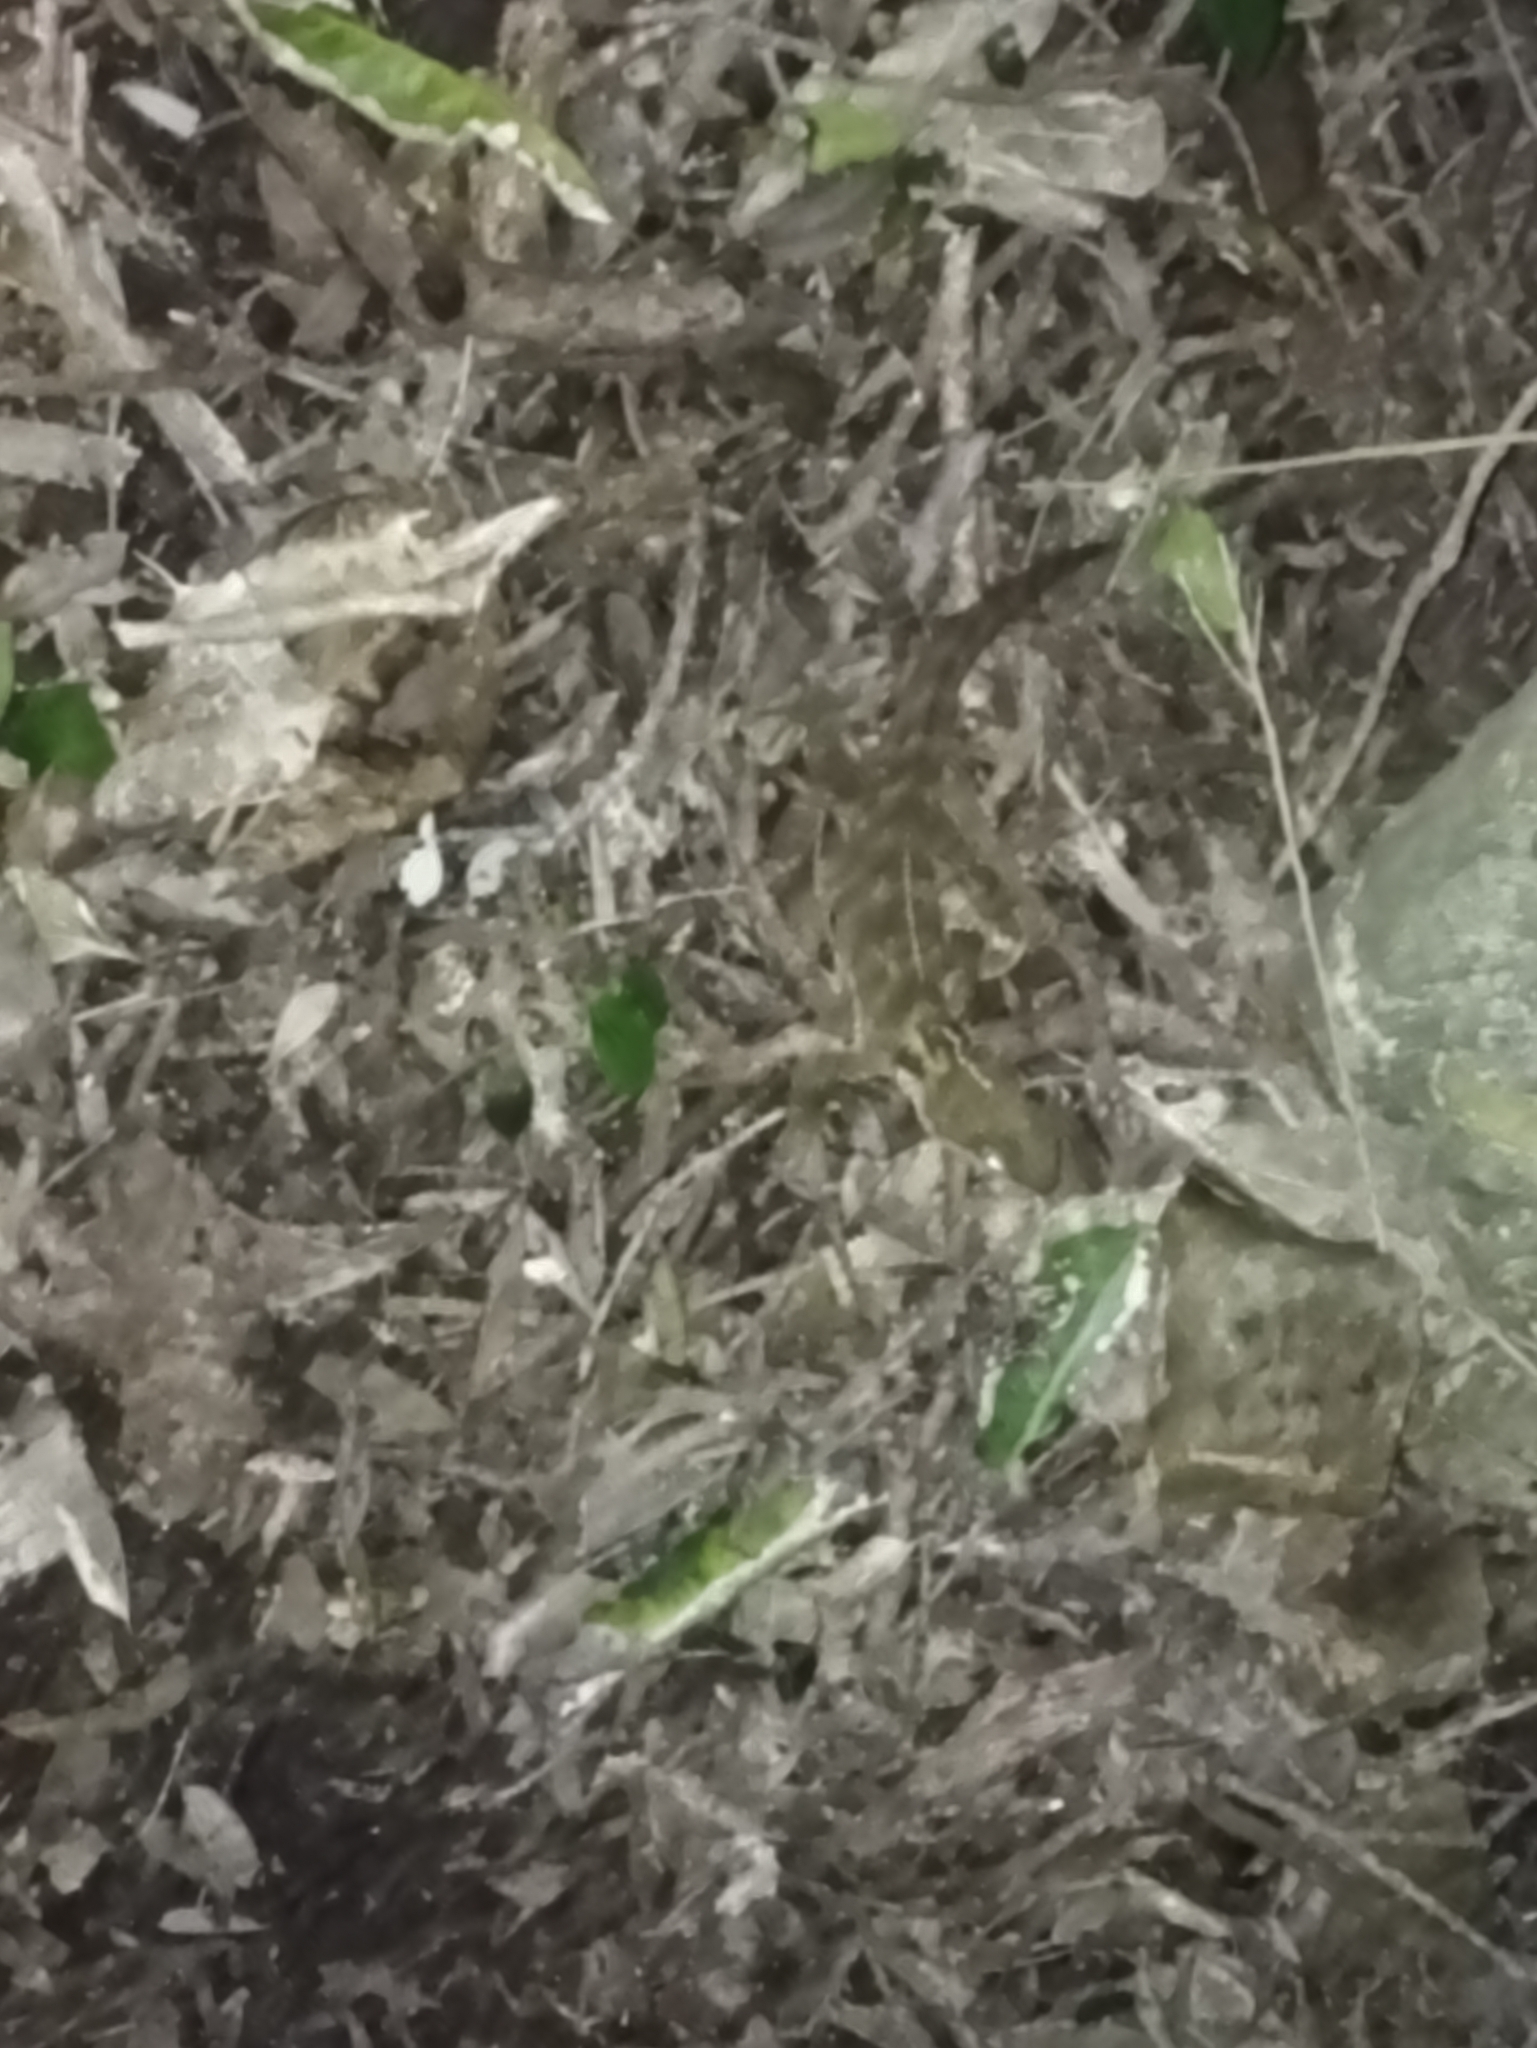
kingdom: Animalia
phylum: Chordata
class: Sphenodontia
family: Sphenodontidae
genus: Sphenodon
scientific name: Sphenodon punctatus
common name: Tuatara
